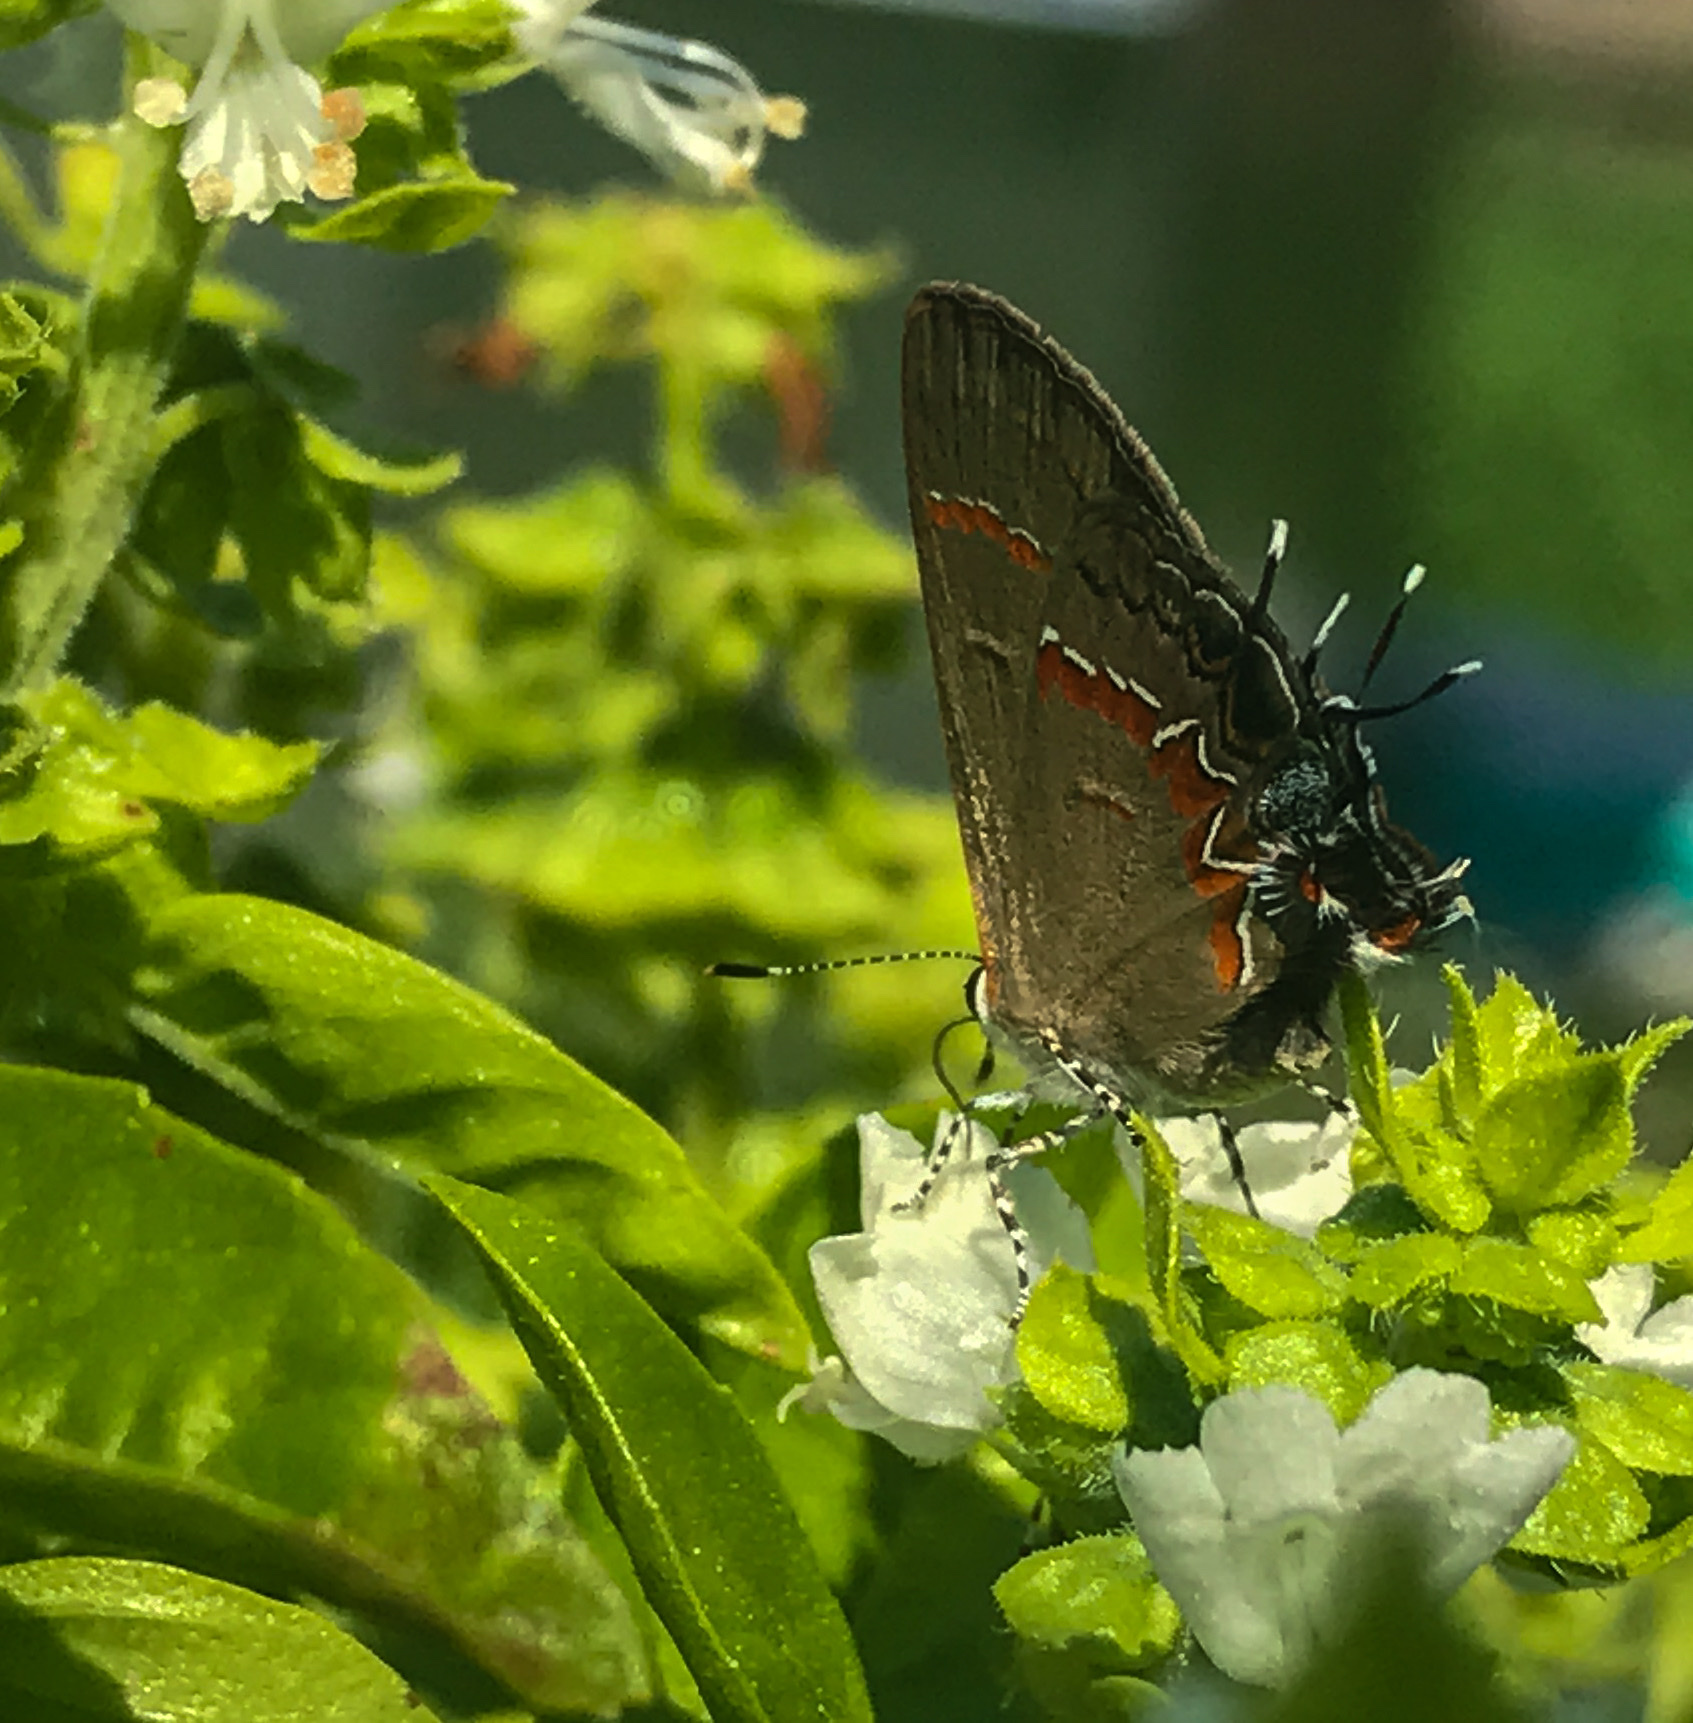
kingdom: Animalia
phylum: Arthropoda
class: Insecta
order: Lepidoptera
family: Lycaenidae
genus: Calycopis
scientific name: Calycopis cecrops
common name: Red-banded hairstreak
